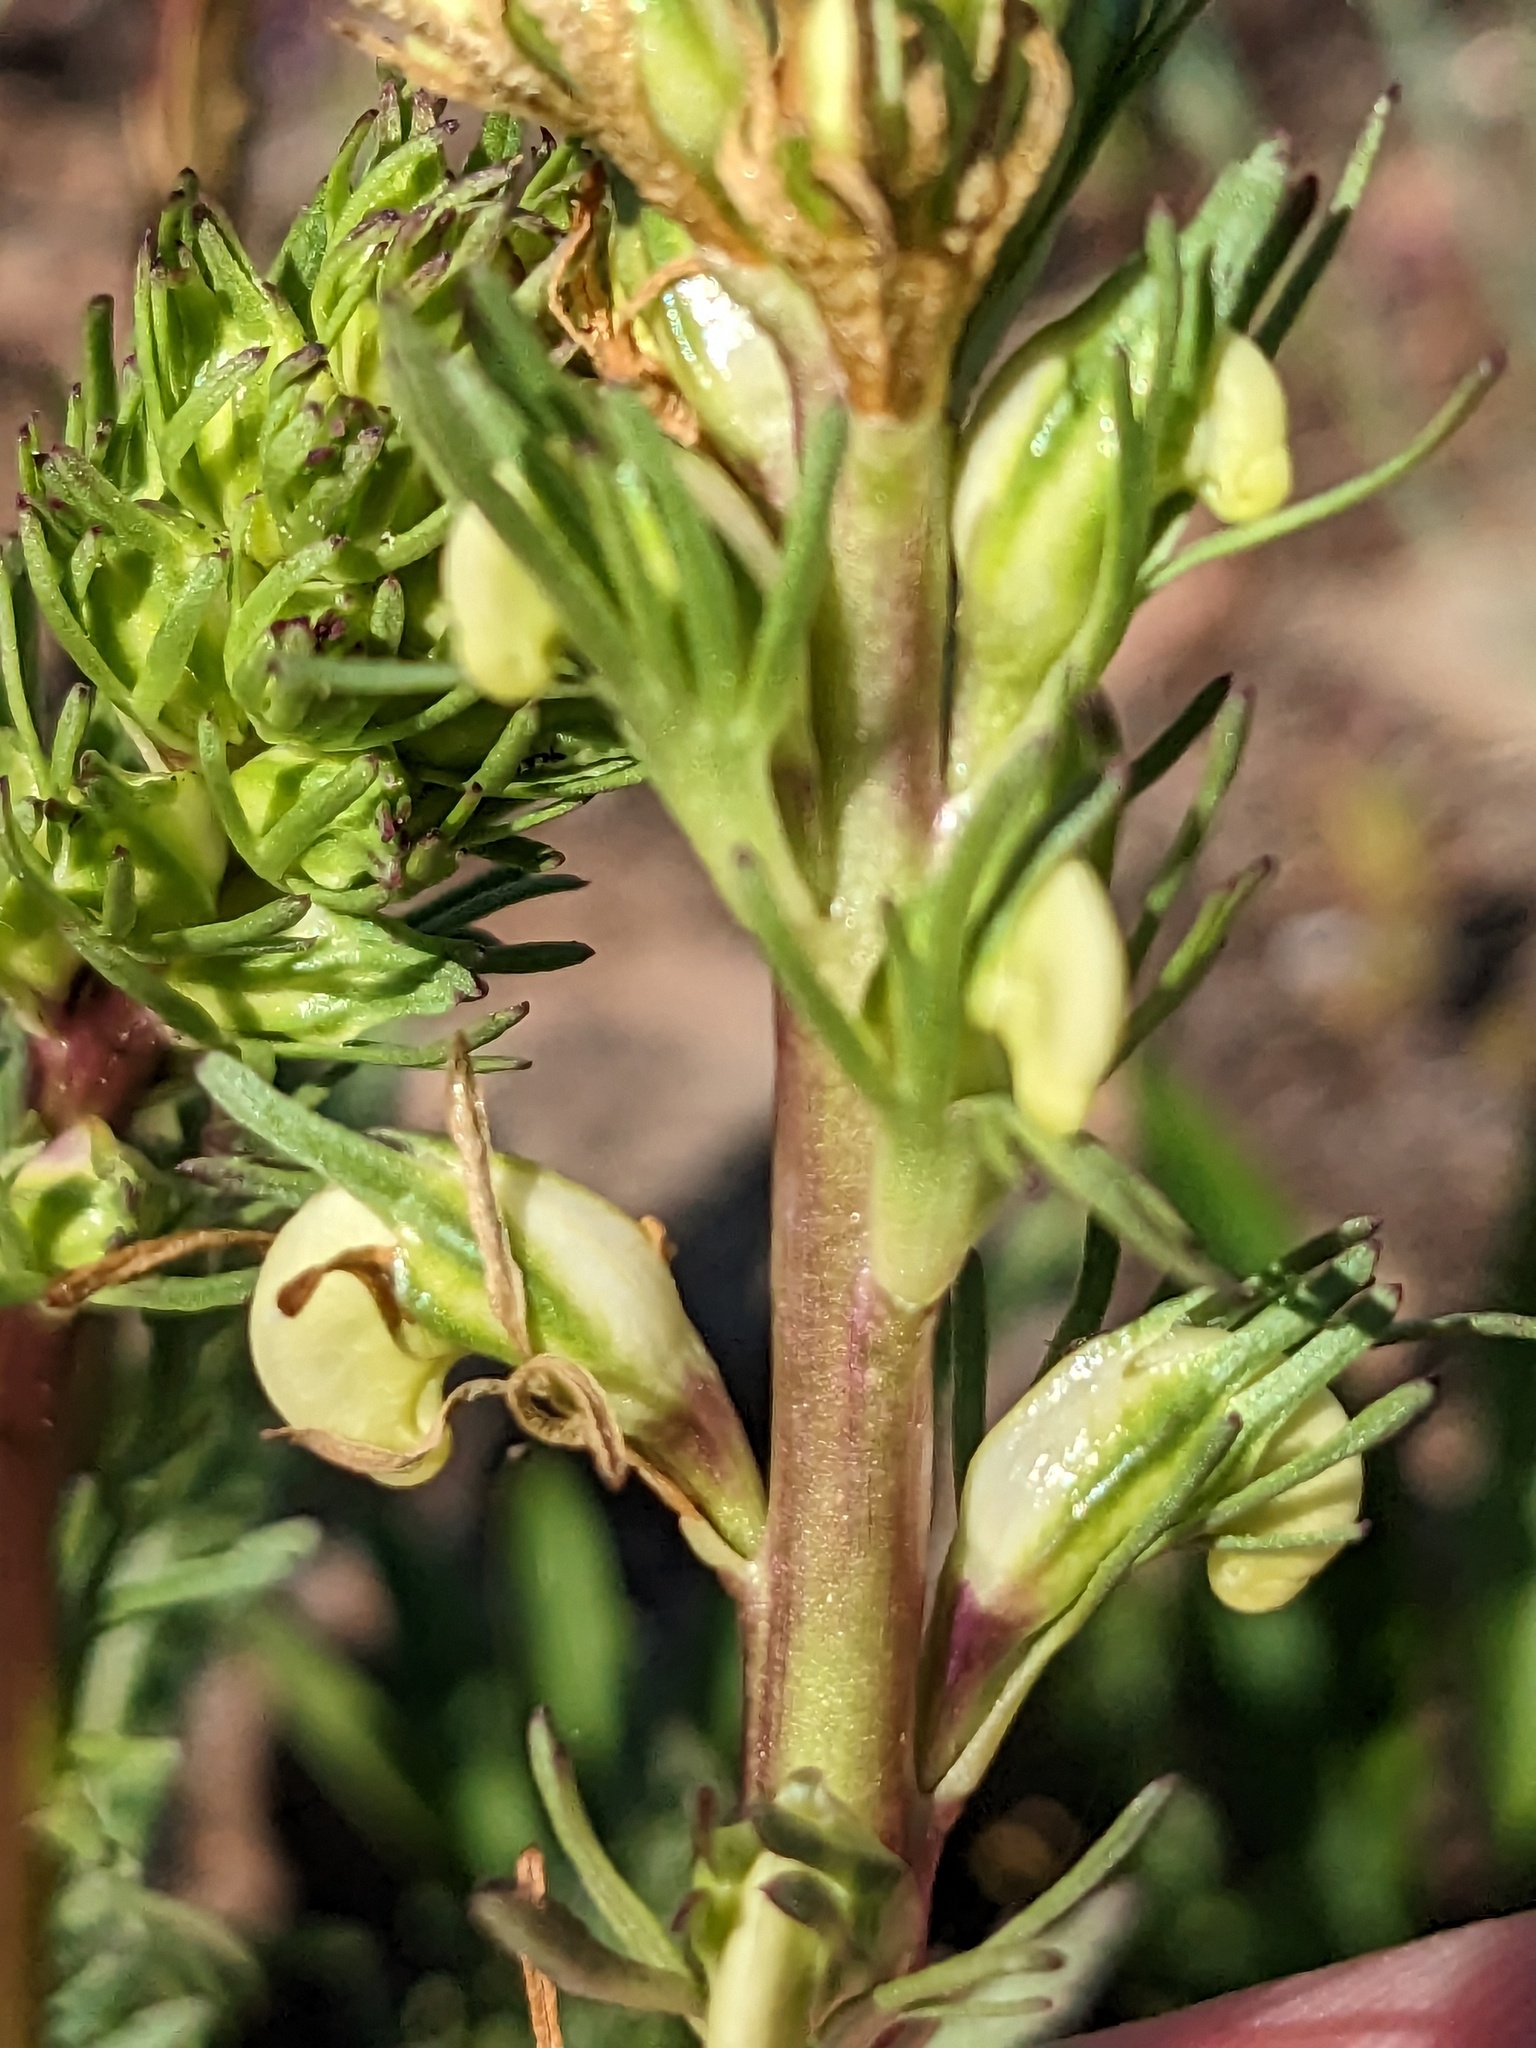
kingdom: Plantae
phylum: Tracheophyta
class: Magnoliopsida
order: Lamiales
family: Orobanchaceae
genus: Pedicularis
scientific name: Pedicularis contorta
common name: Coiled lousewort
